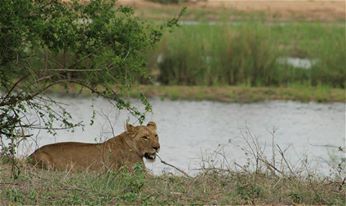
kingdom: Animalia
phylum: Chordata
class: Mammalia
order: Carnivora
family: Felidae
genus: Panthera
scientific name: Panthera leo
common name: Lion
